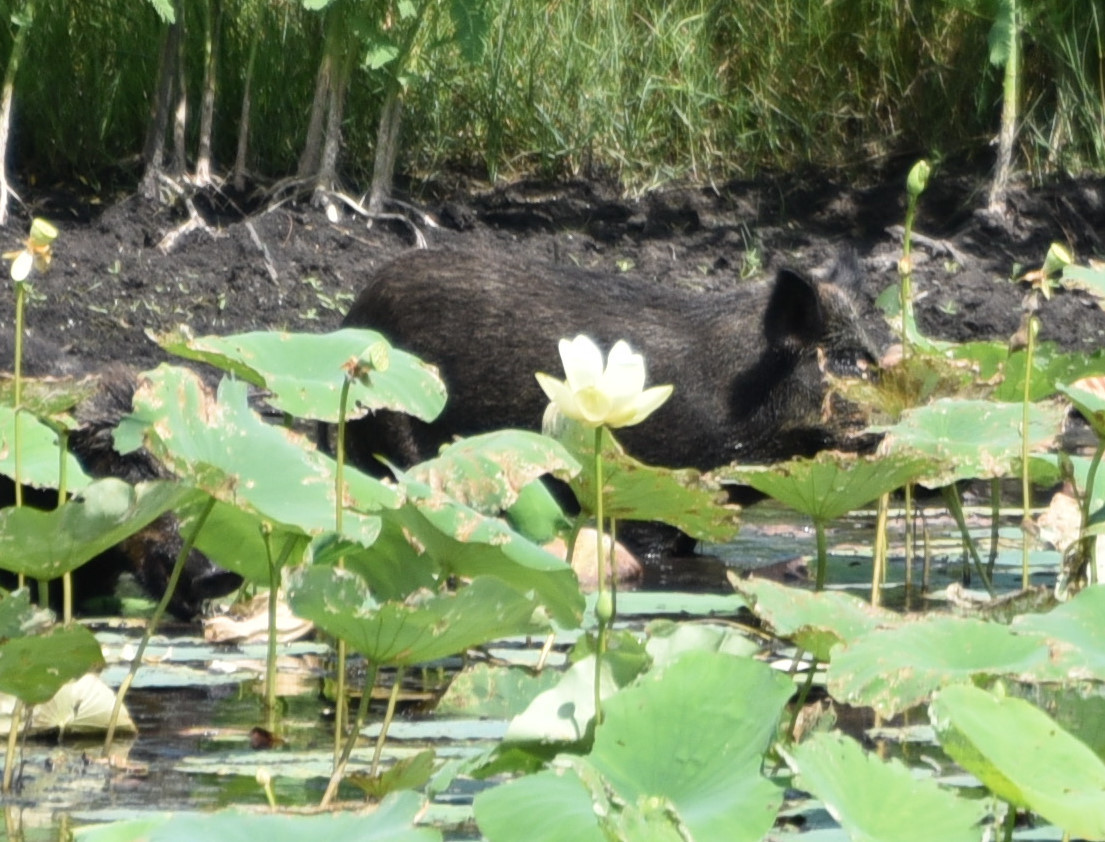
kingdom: Animalia
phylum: Chordata
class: Mammalia
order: Artiodactyla
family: Suidae
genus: Sus
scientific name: Sus scrofa
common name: Wild boar
